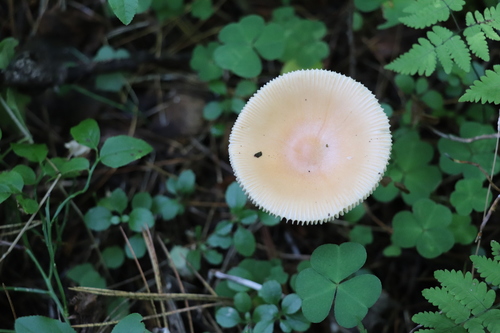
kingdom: Fungi
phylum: Basidiomycota
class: Agaricomycetes
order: Agaricales
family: Amanitaceae
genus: Amanita
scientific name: Amanita crocea
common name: Orange grisette
